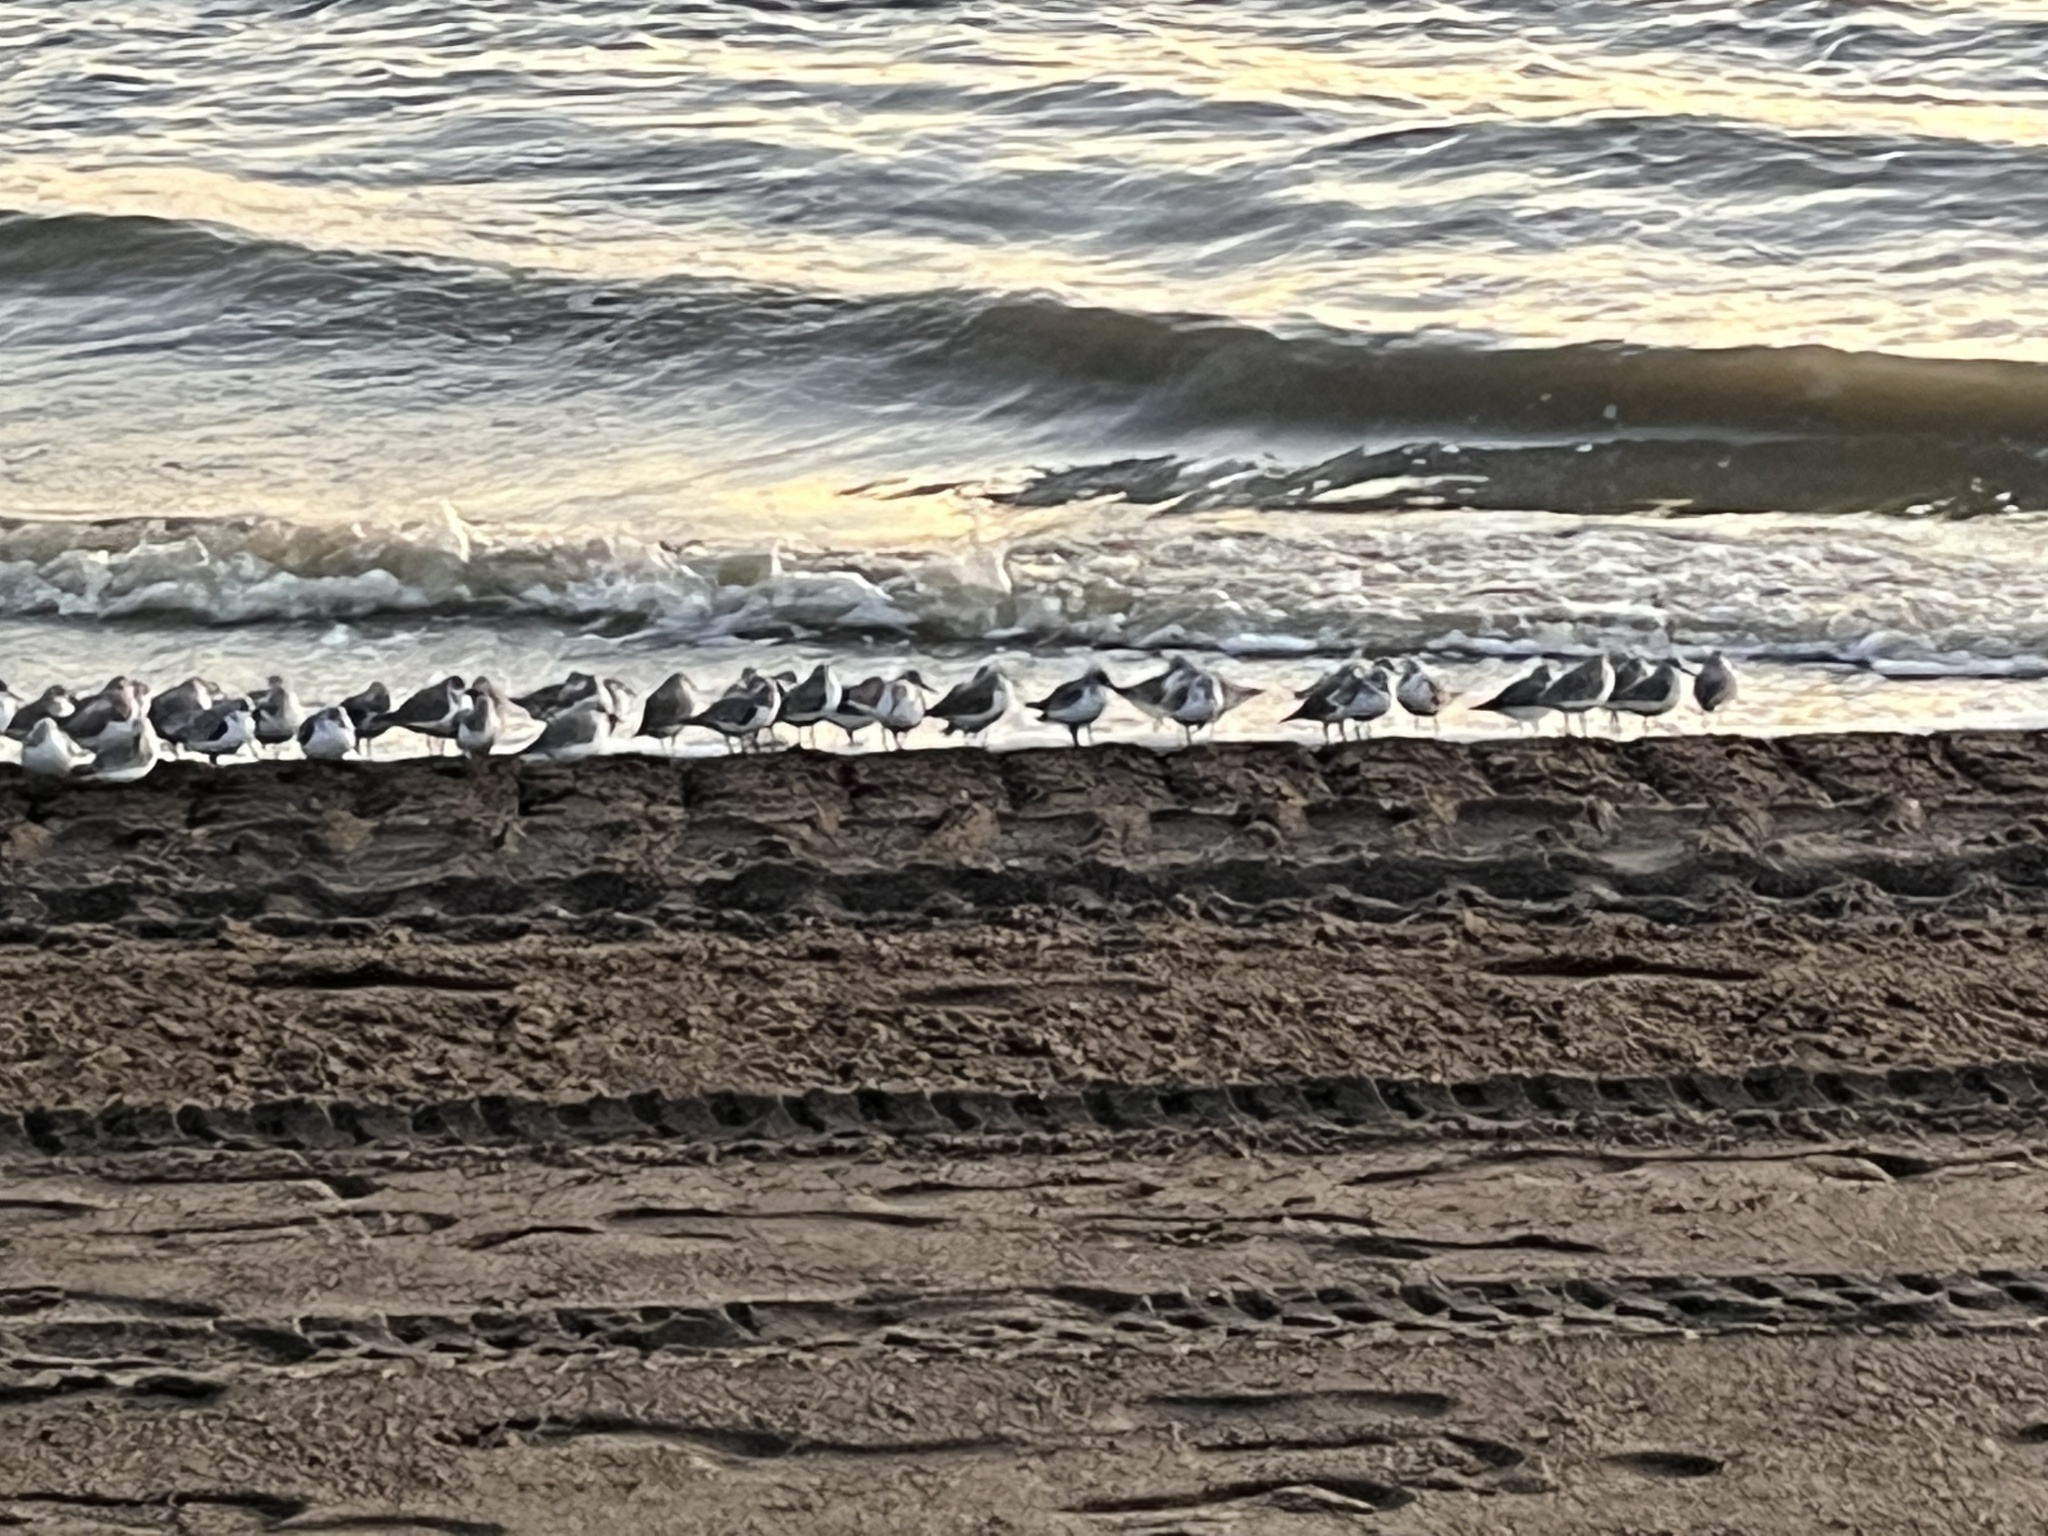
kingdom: Animalia
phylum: Chordata
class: Aves
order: Charadriiformes
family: Scolopacidae
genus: Calidris
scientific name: Calidris alba
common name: Sanderling
